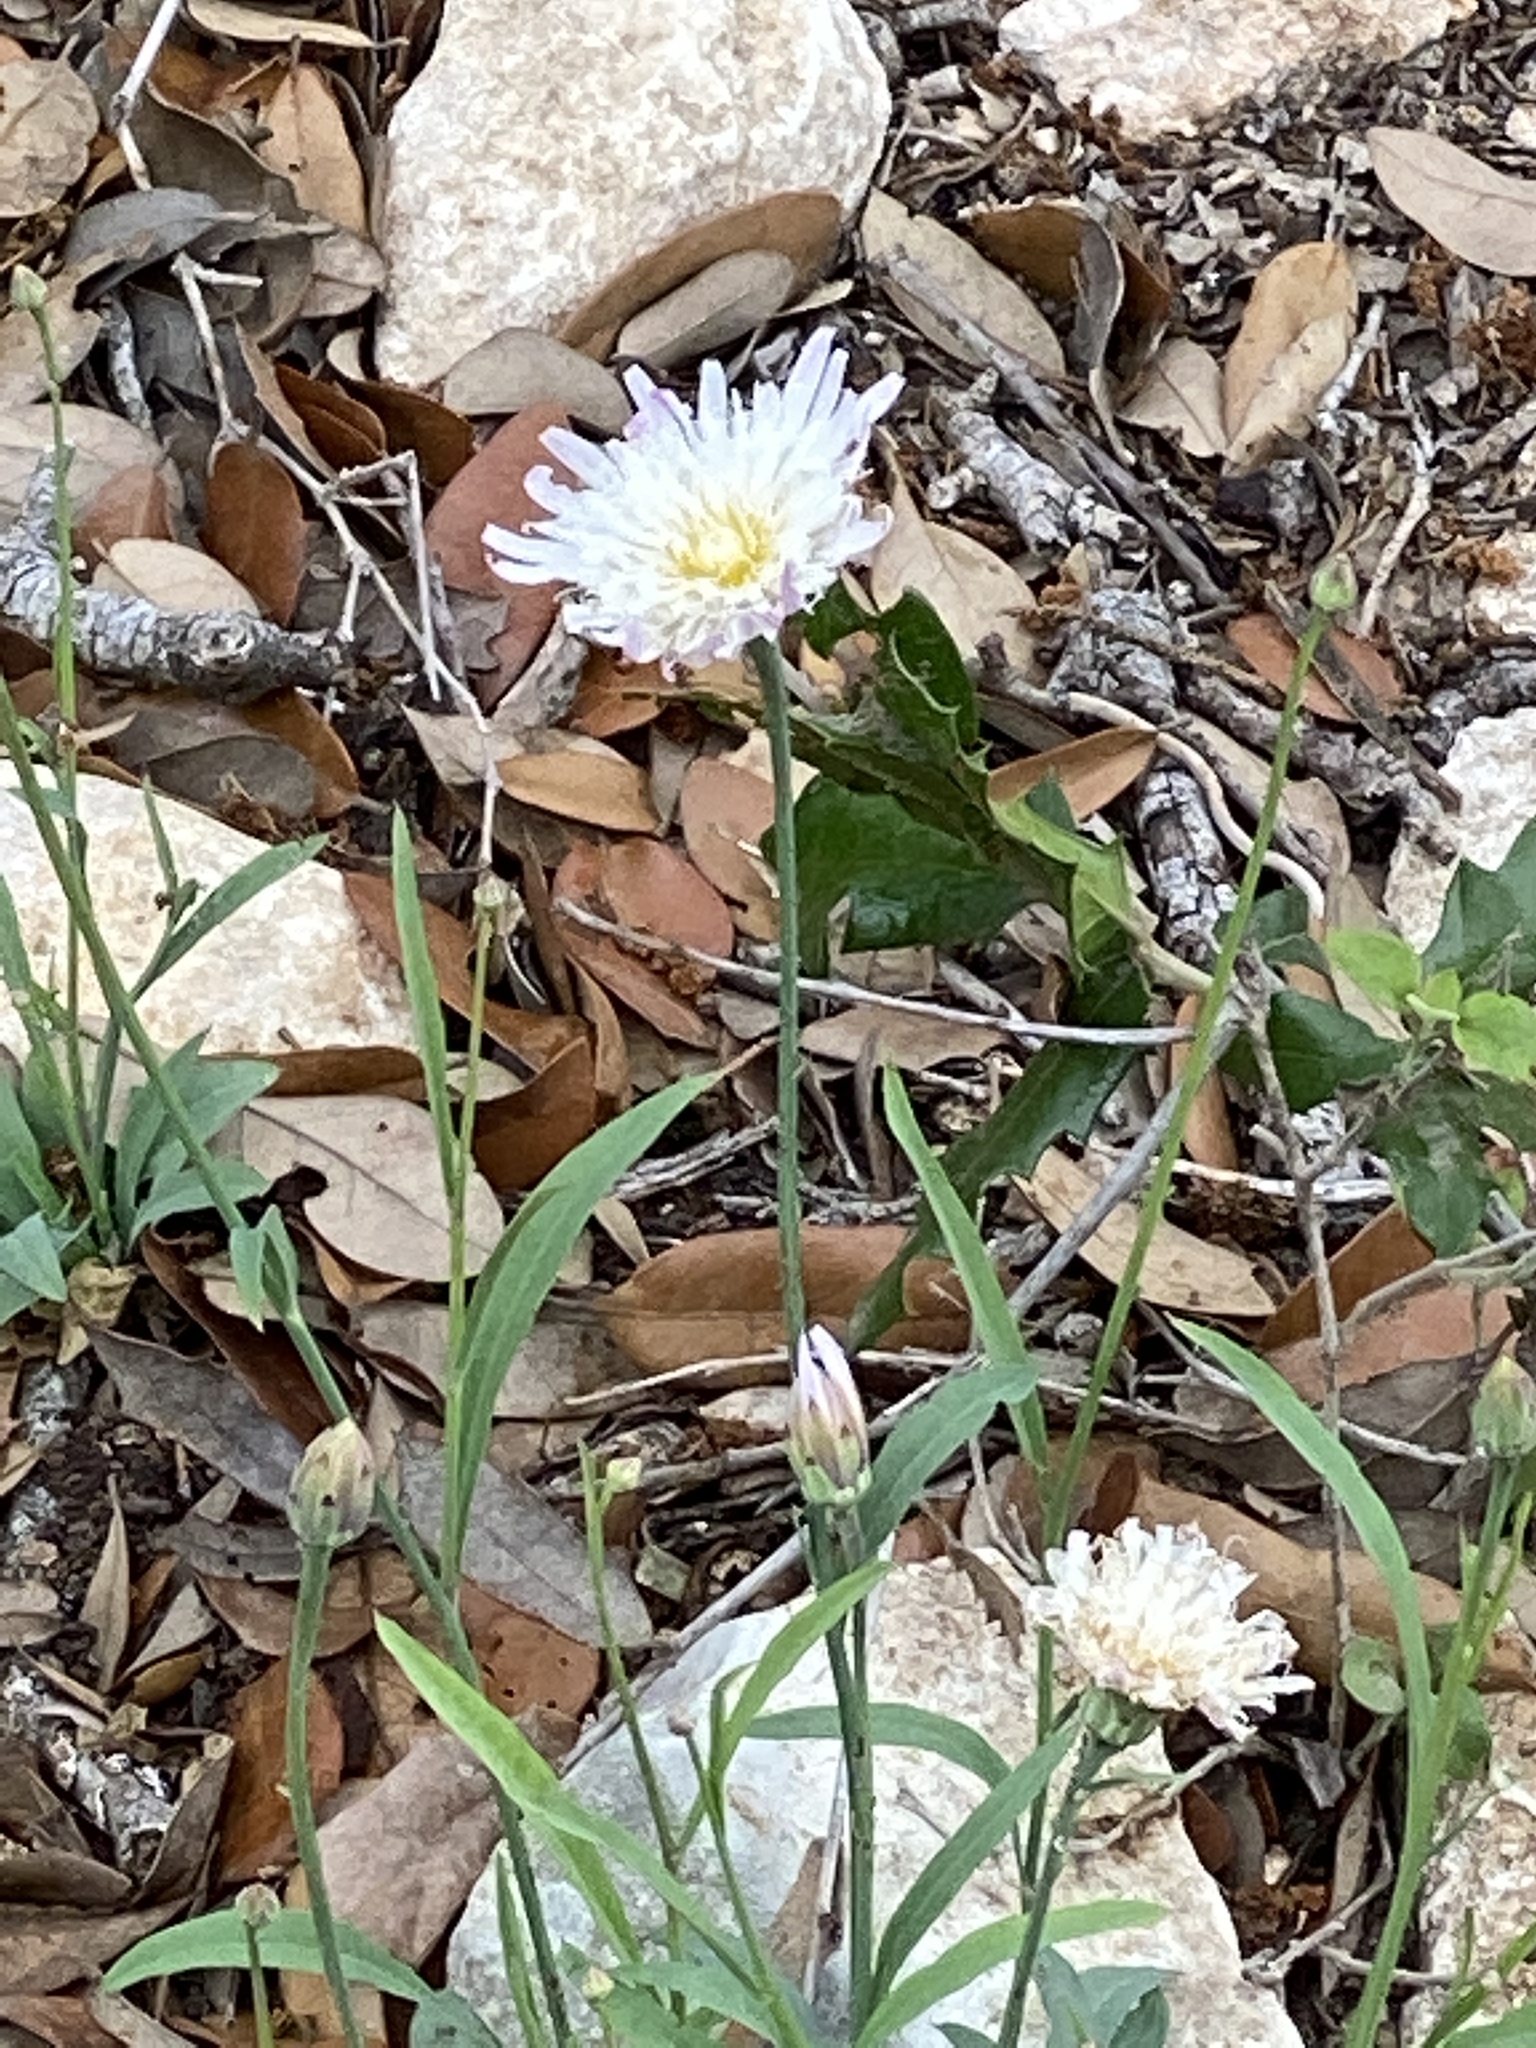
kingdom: Plantae
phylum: Tracheophyta
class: Magnoliopsida
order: Asterales
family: Asteraceae
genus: Pinaropappus
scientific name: Pinaropappus roseus
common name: Rock-lettuce
